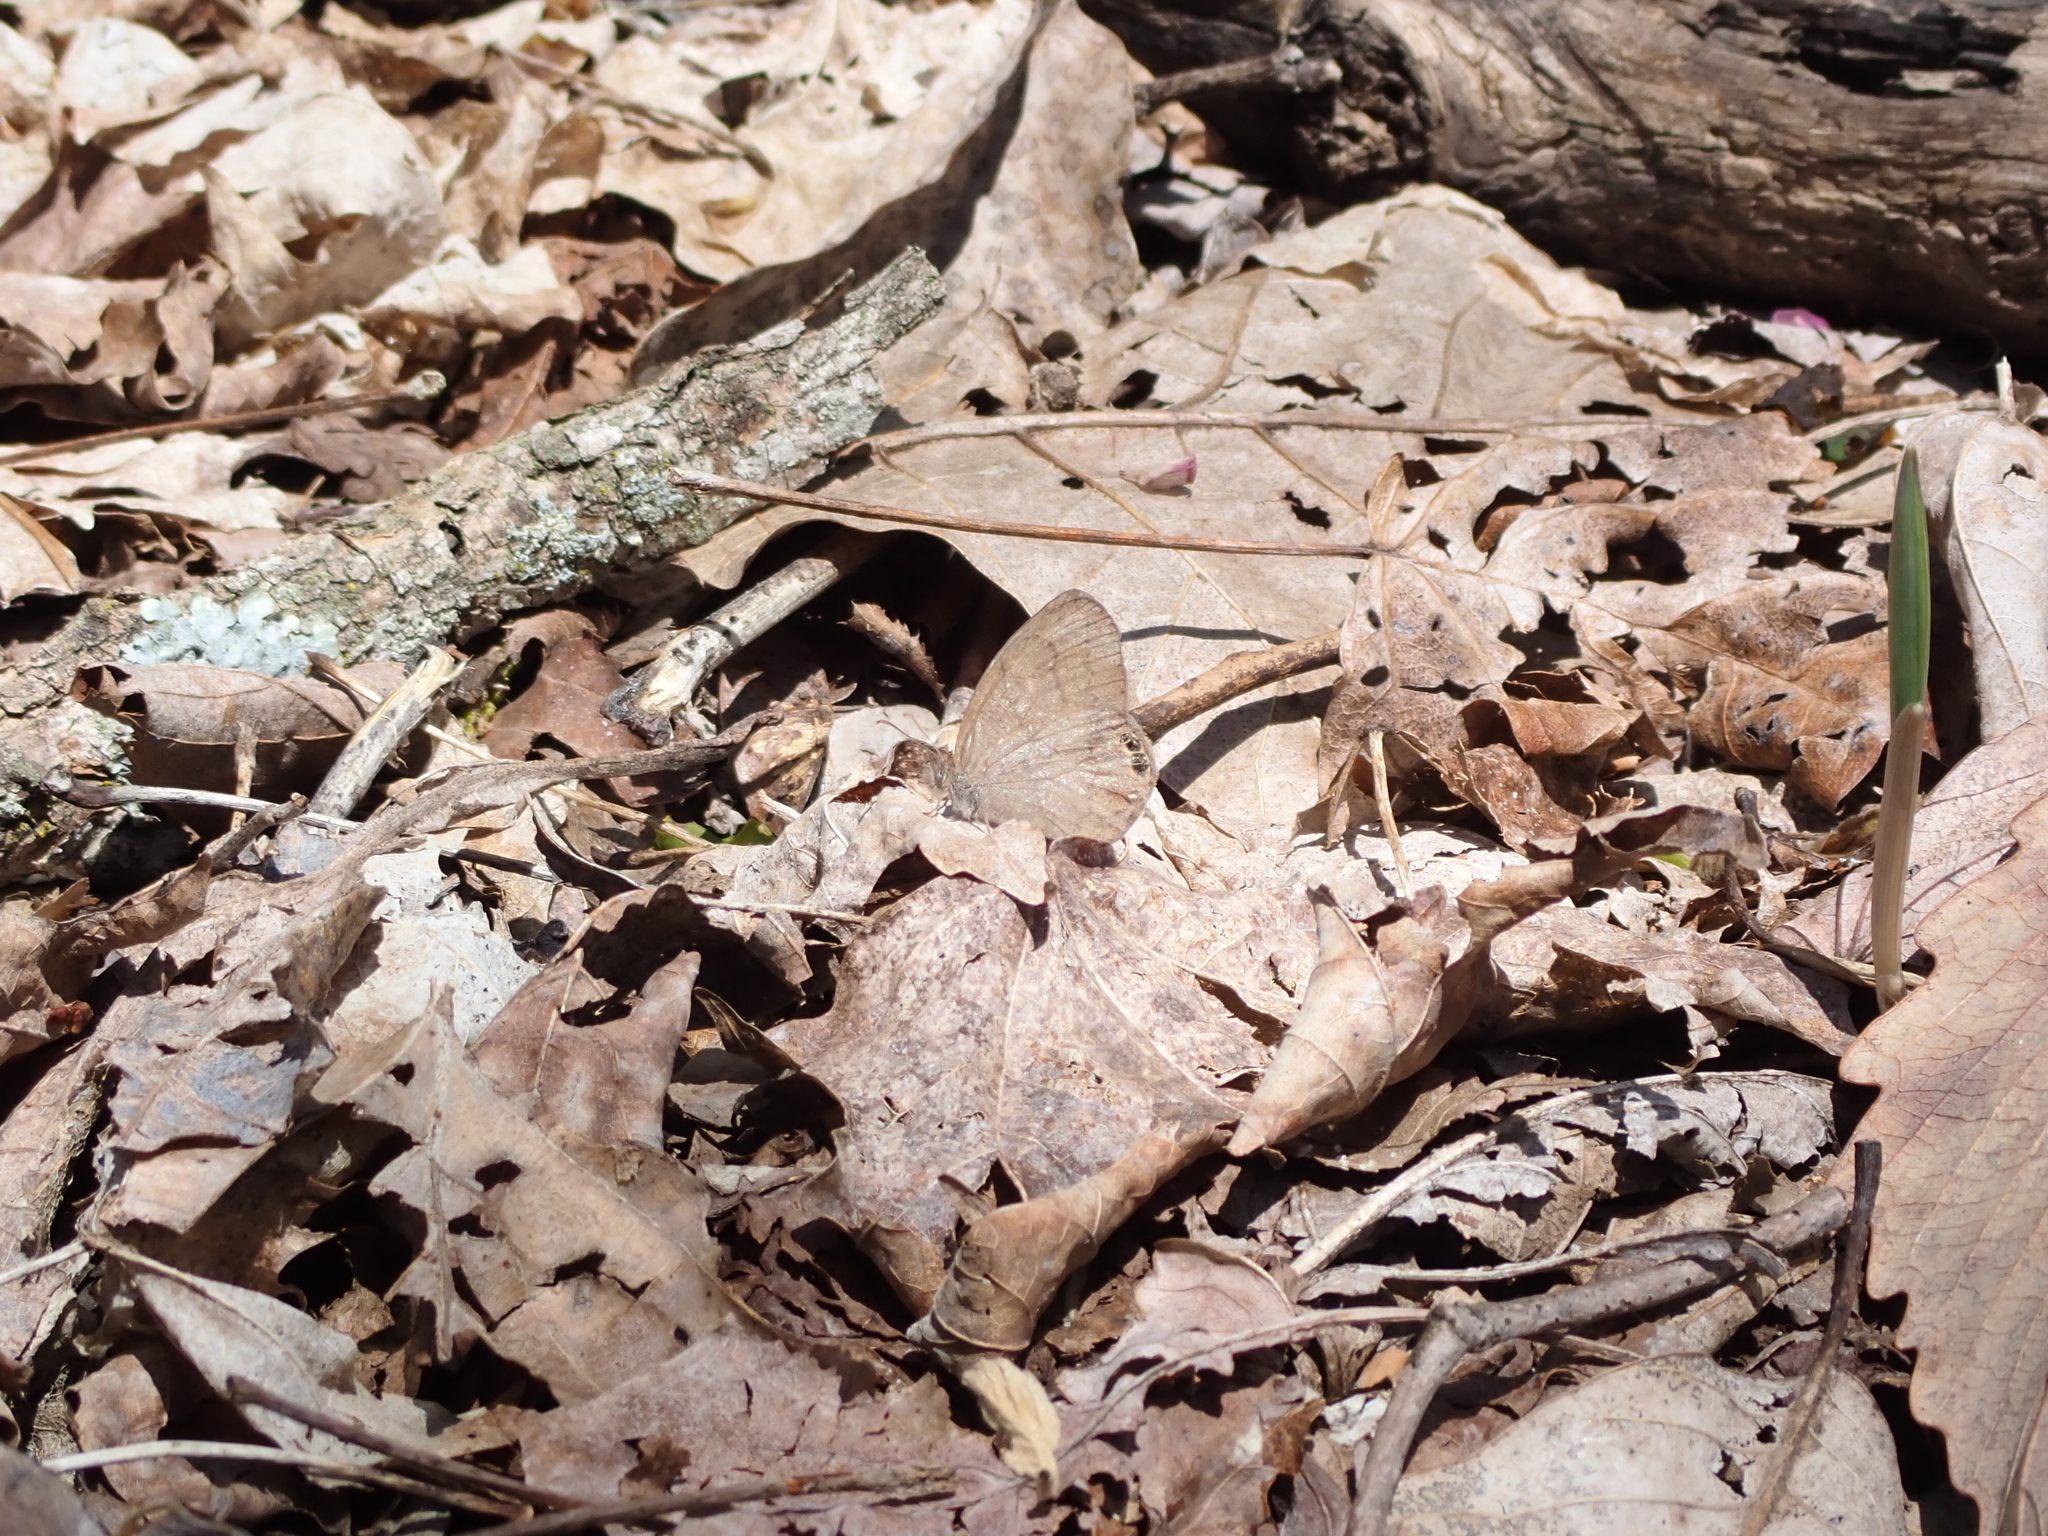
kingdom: Animalia
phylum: Arthropoda
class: Insecta
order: Lepidoptera
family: Nymphalidae
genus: Euptychia
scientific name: Euptychia cornelius
